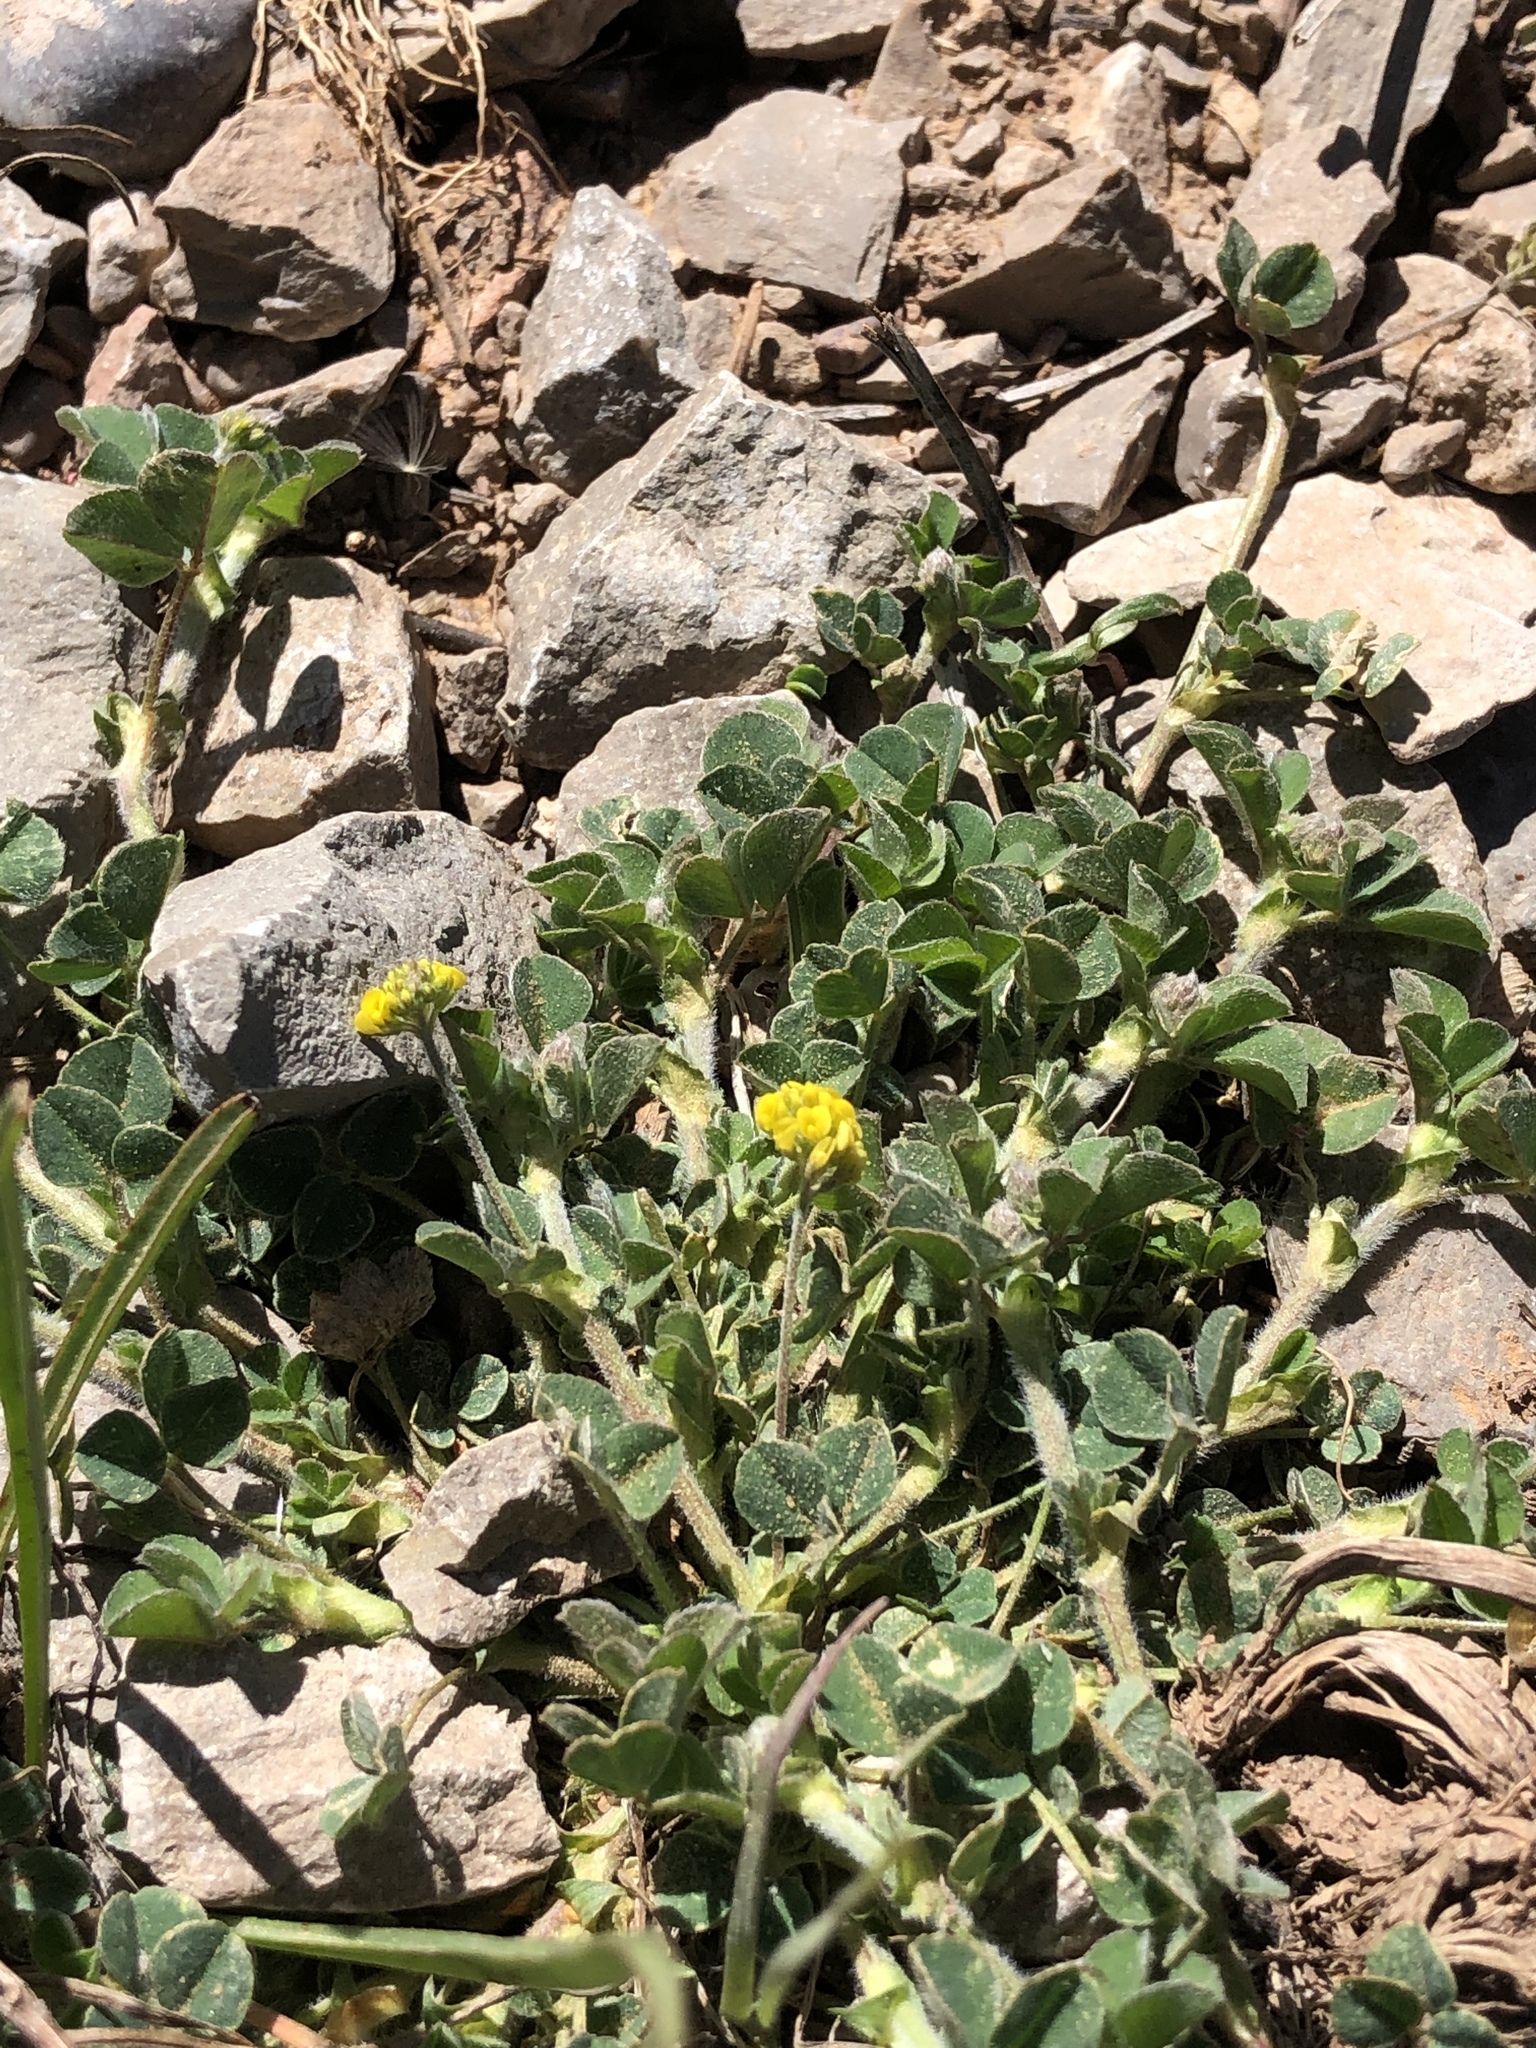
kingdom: Plantae
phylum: Tracheophyta
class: Magnoliopsida
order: Fabales
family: Fabaceae
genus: Medicago
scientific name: Medicago lupulina
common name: Black medick
